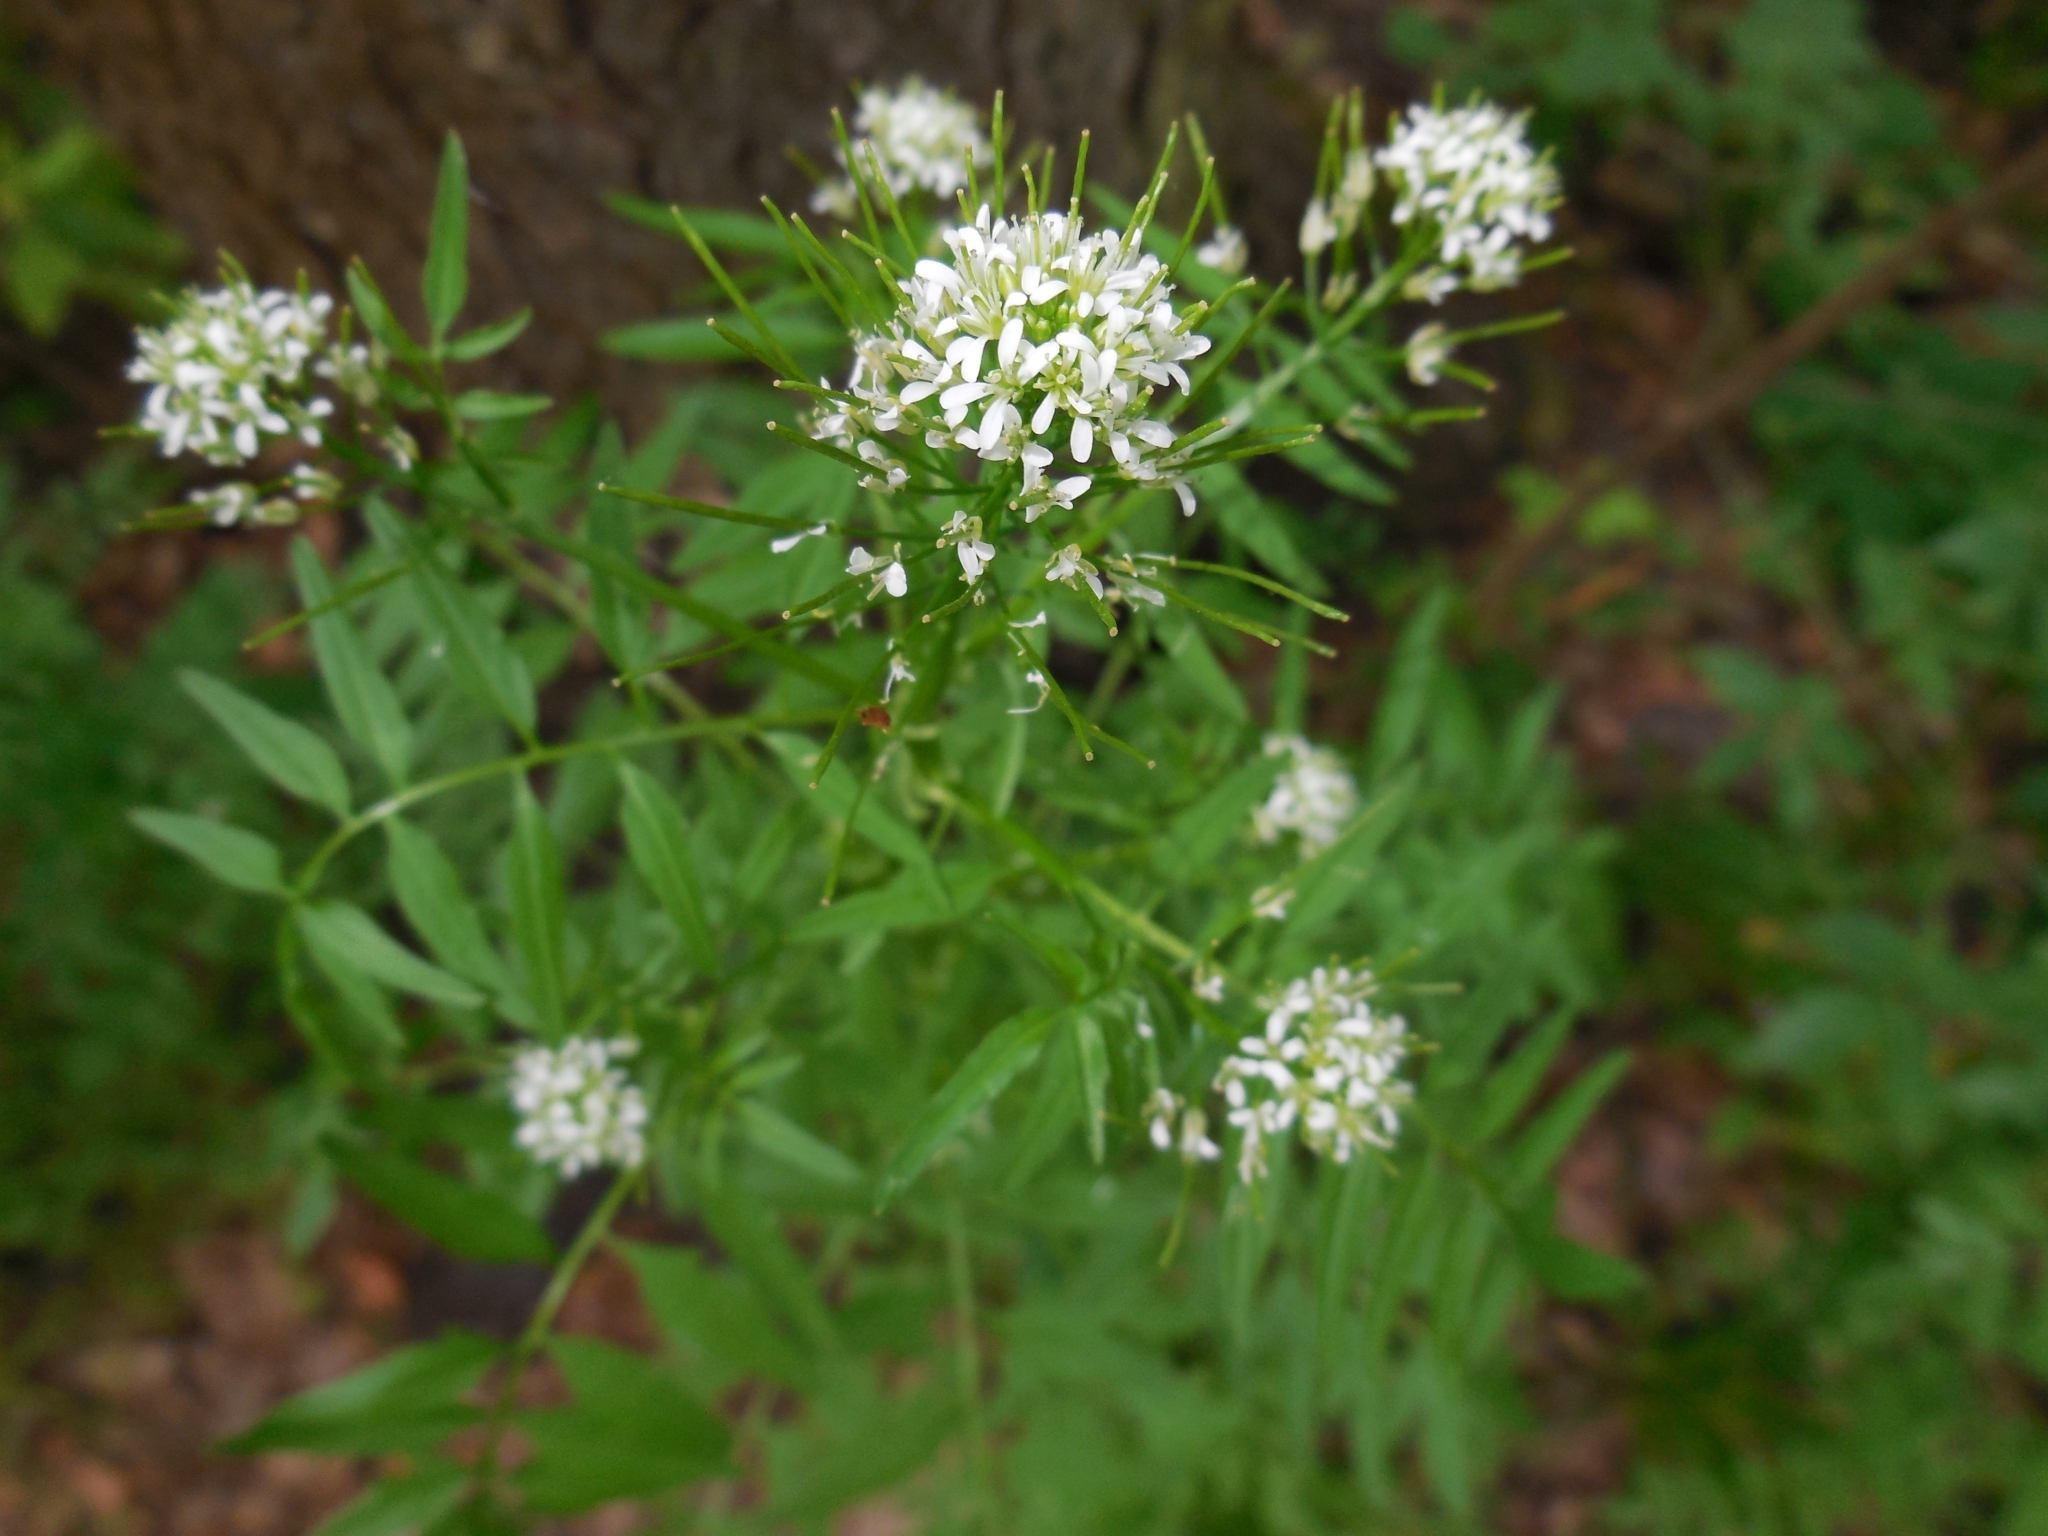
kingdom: Plantae
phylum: Tracheophyta
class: Magnoliopsida
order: Brassicales
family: Brassicaceae
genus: Cardamine
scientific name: Cardamine impatiens
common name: Narrow-leaved bitter-cress
